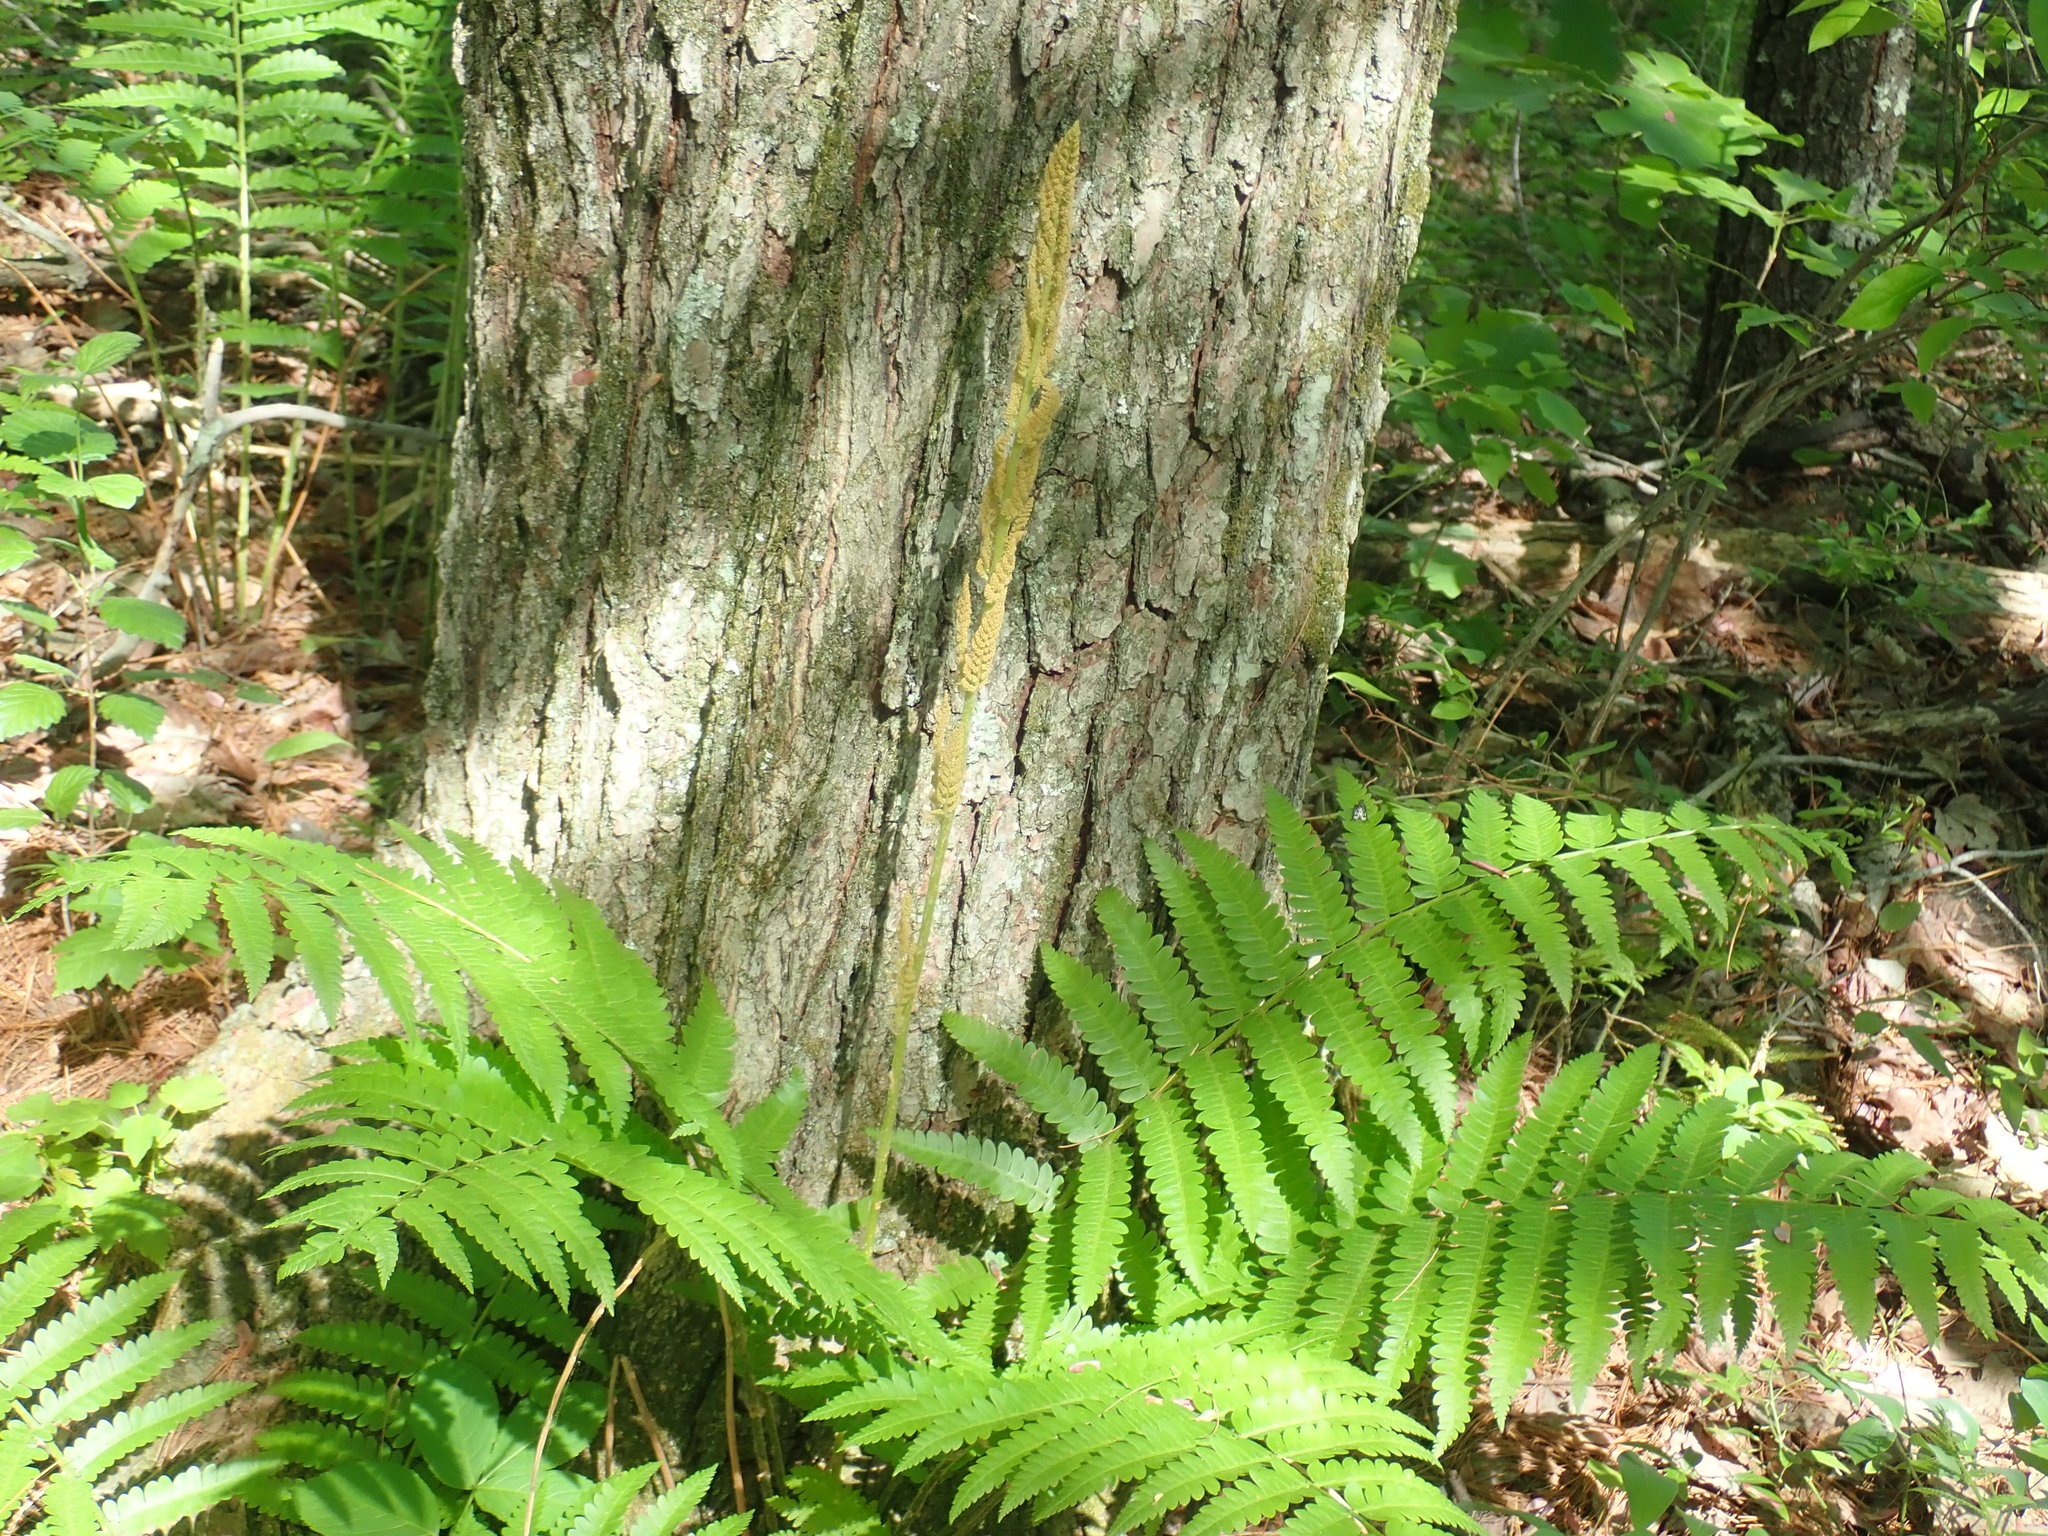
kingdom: Plantae
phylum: Tracheophyta
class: Polypodiopsida
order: Osmundales
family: Osmundaceae
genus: Osmundastrum
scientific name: Osmundastrum cinnamomeum
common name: Cinnamon fern
